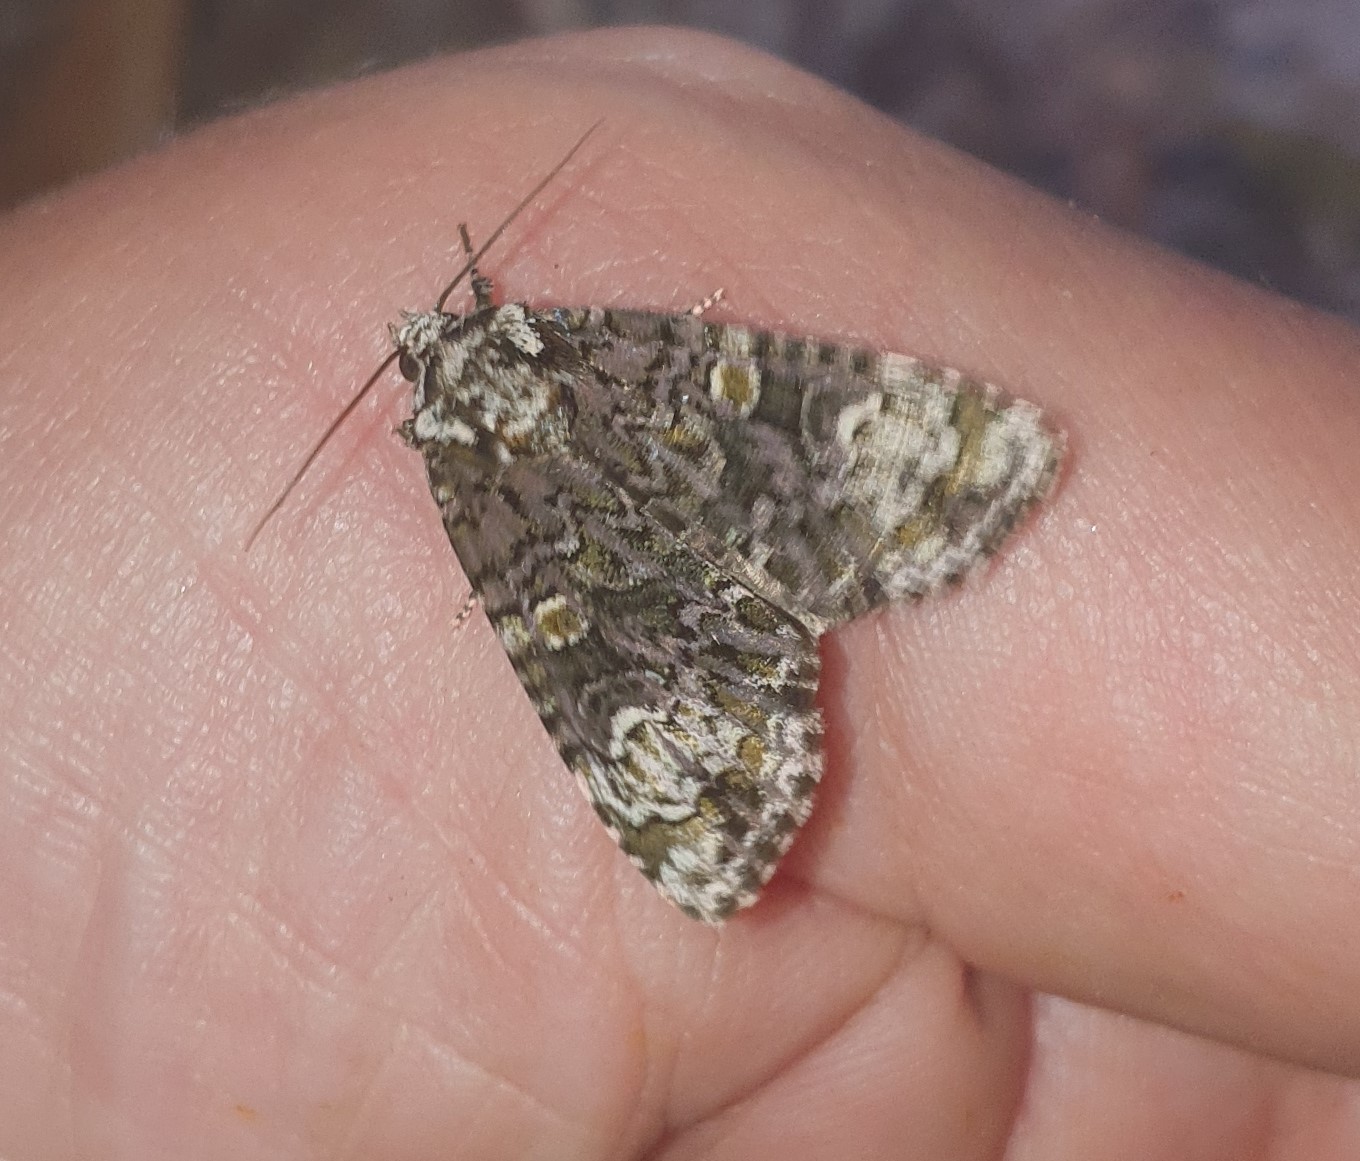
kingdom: Animalia
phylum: Arthropoda
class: Insecta
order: Lepidoptera
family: Noctuidae
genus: Craniophora
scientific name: Craniophora ligustri
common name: Coronet
